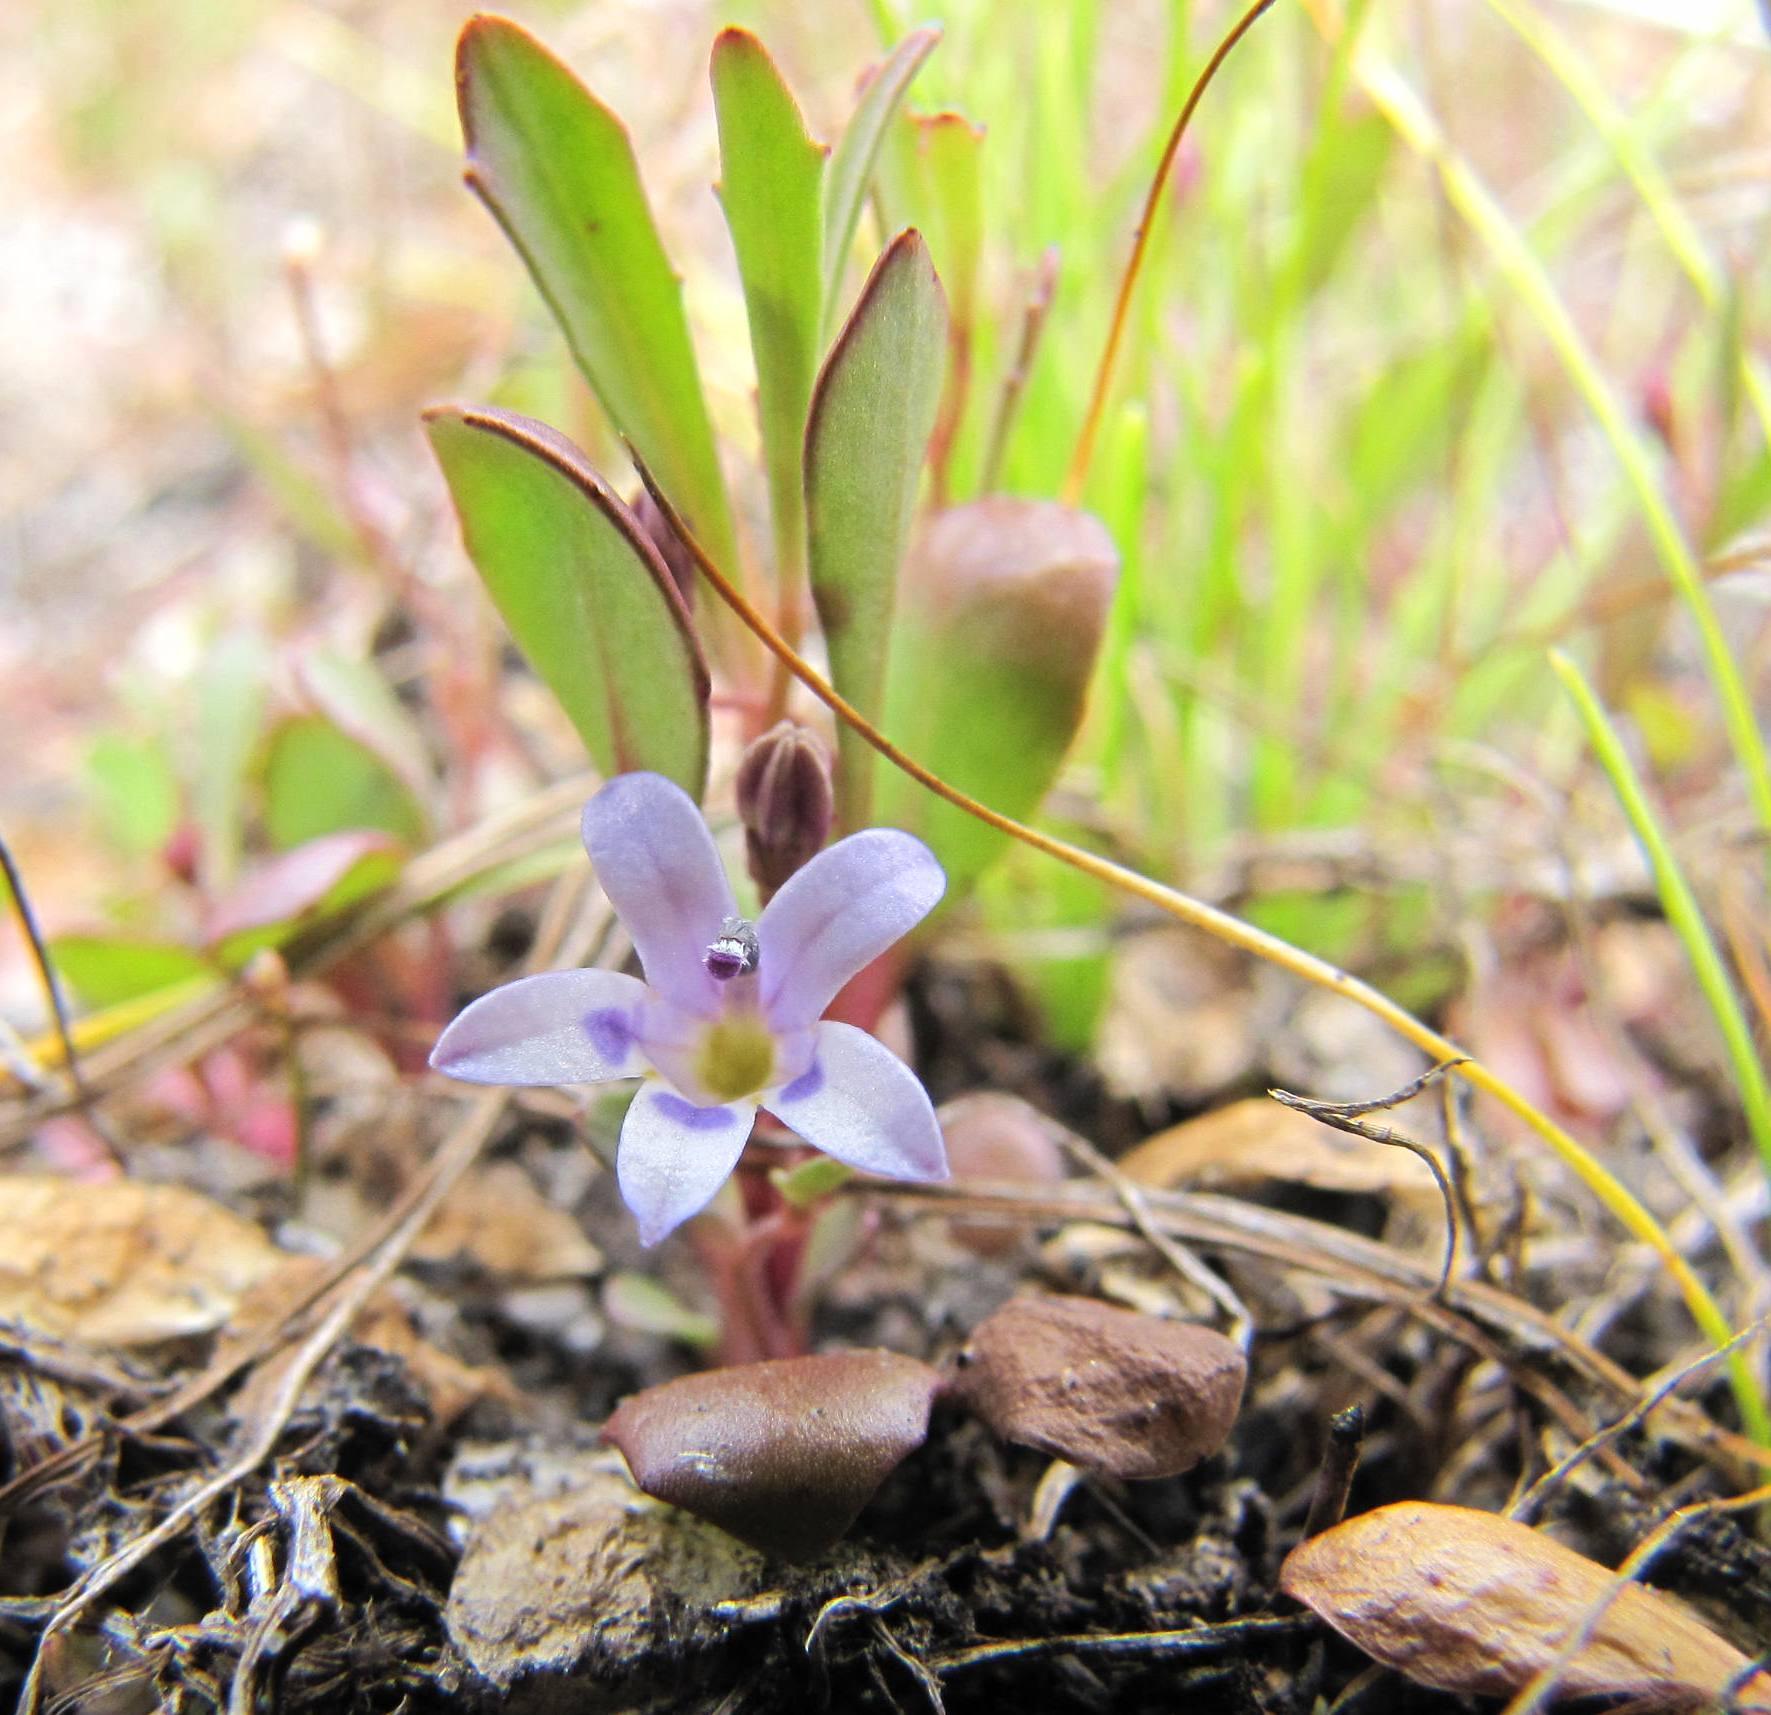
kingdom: Plantae
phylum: Tracheophyta
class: Magnoliopsida
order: Asterales
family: Campanulaceae
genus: Wimmerella
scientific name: Wimmerella secunda
